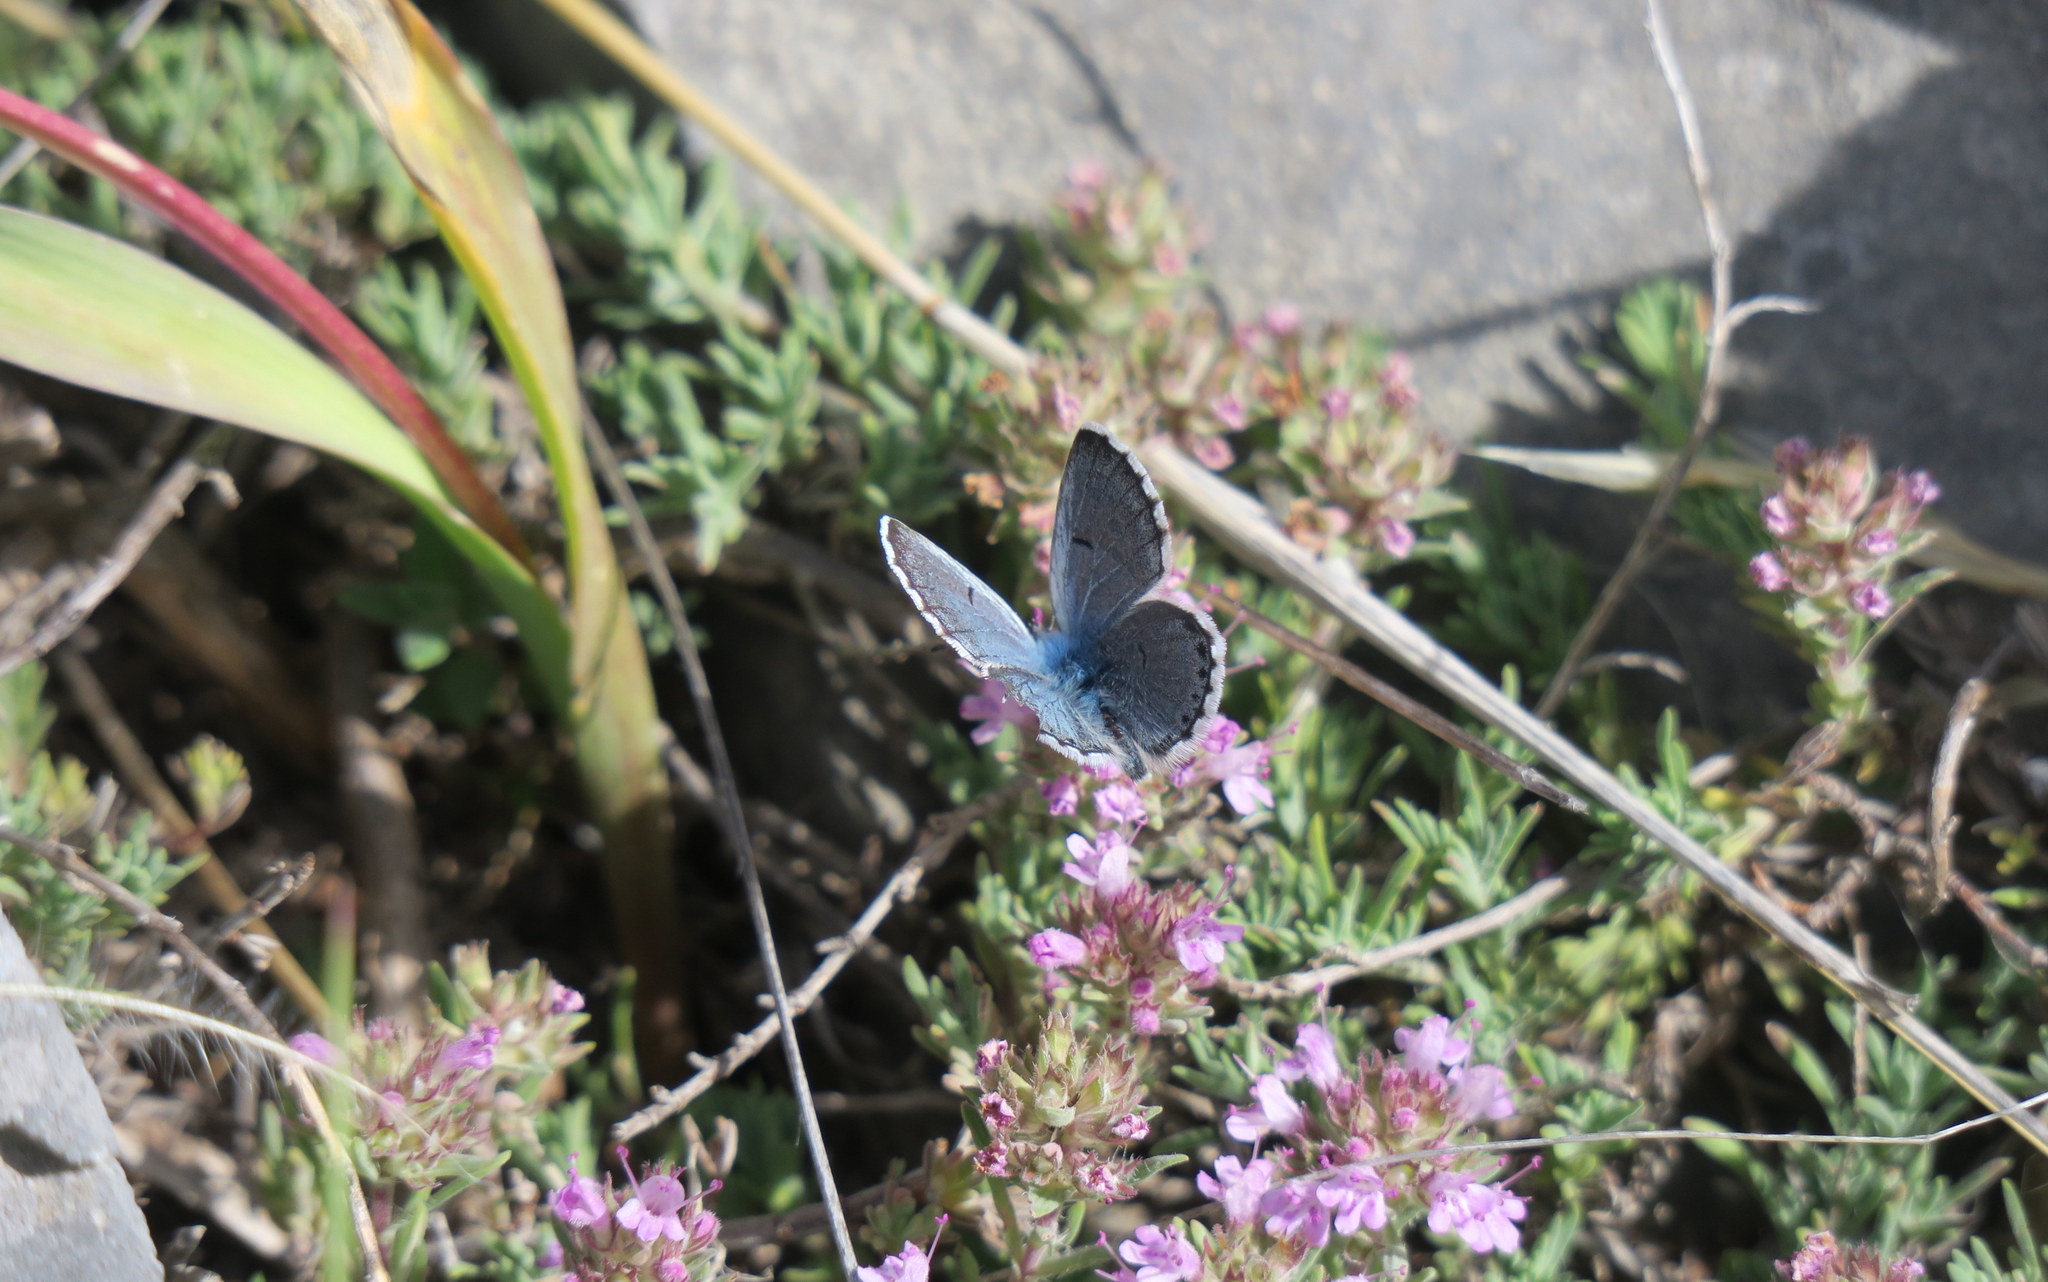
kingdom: Animalia
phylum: Arthropoda
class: Insecta
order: Lepidoptera
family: Lycaenidae
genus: Pseudophilotes
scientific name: Pseudophilotes baton
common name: Baton blue
